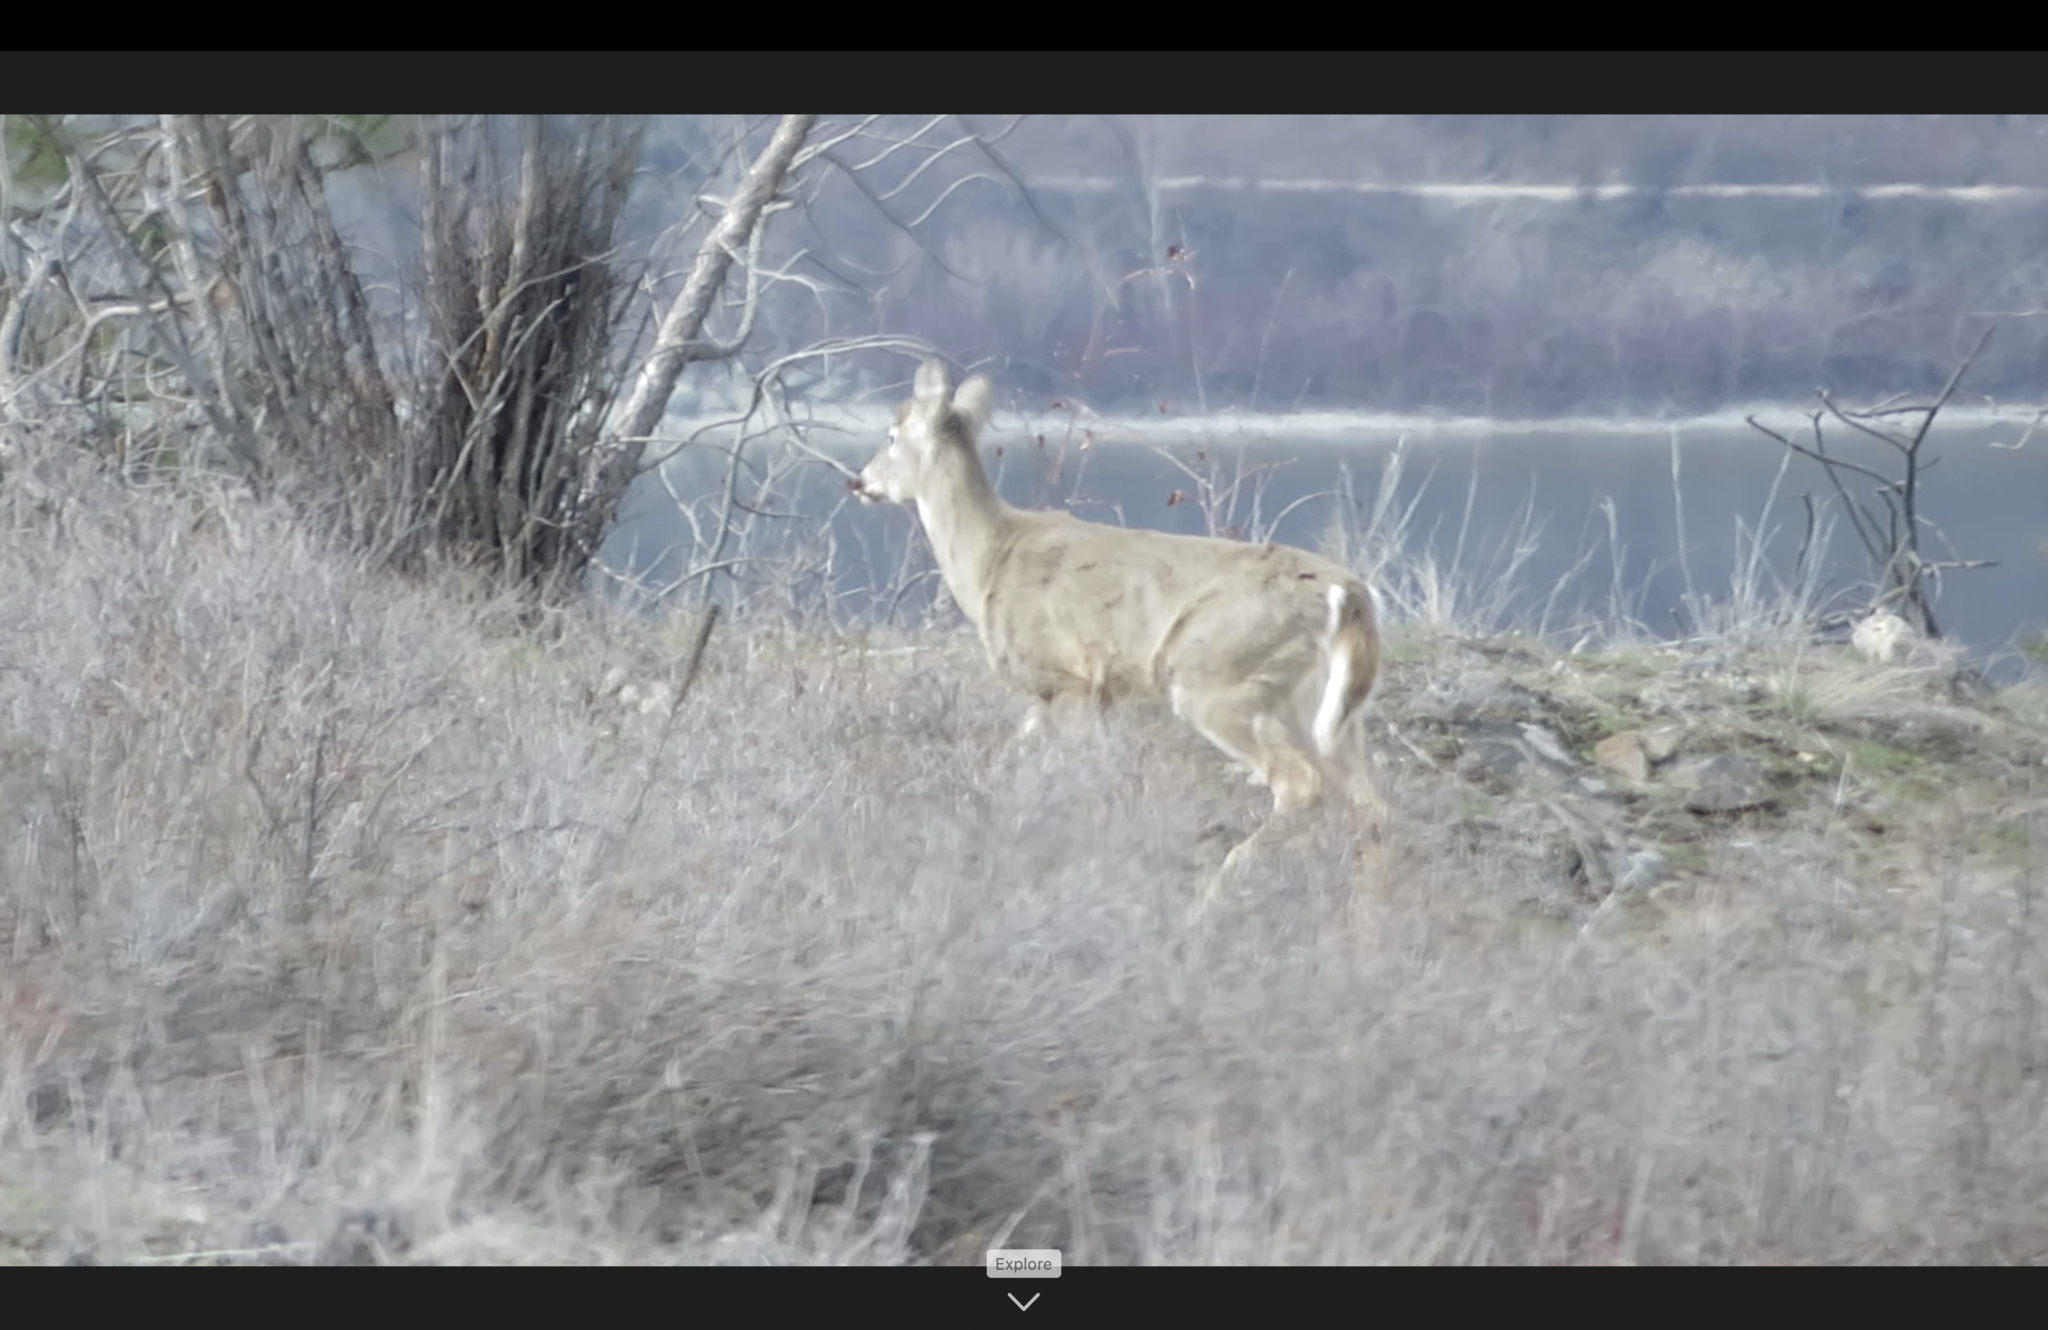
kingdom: Animalia
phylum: Chordata
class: Mammalia
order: Artiodactyla
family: Cervidae
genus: Odocoileus
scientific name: Odocoileus virginianus
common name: White-tailed deer
